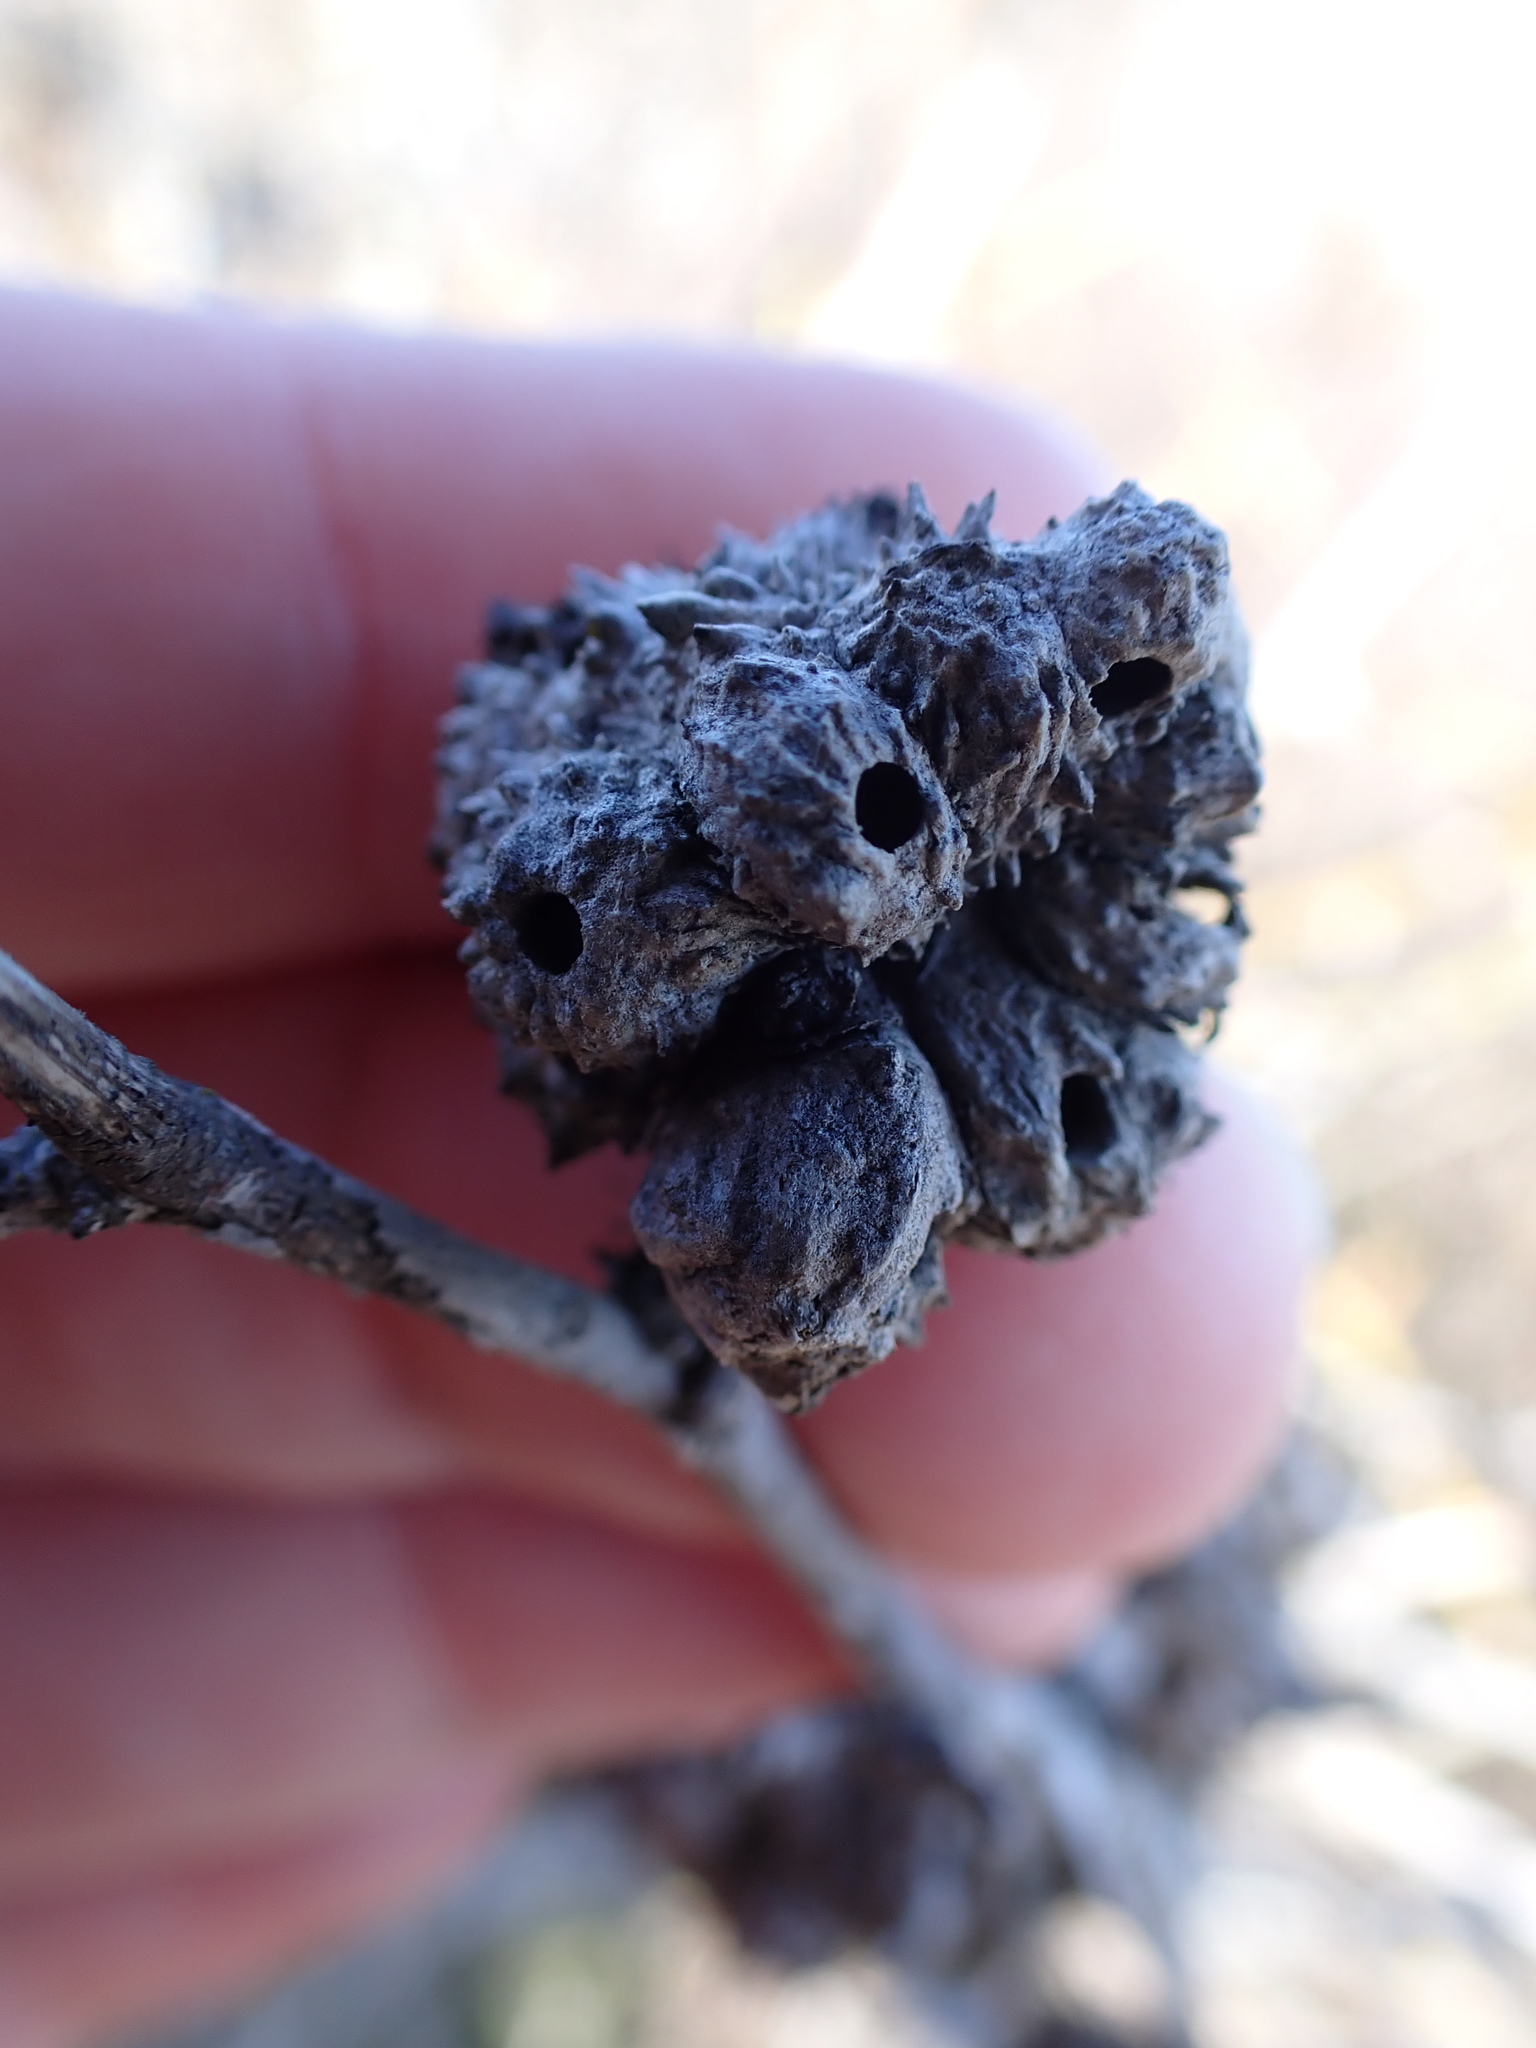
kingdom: Animalia
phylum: Arthropoda
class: Insecta
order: Hymenoptera
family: Cynipidae
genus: Diplolepis
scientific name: Diplolepis rosae
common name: Bedeguar gall
